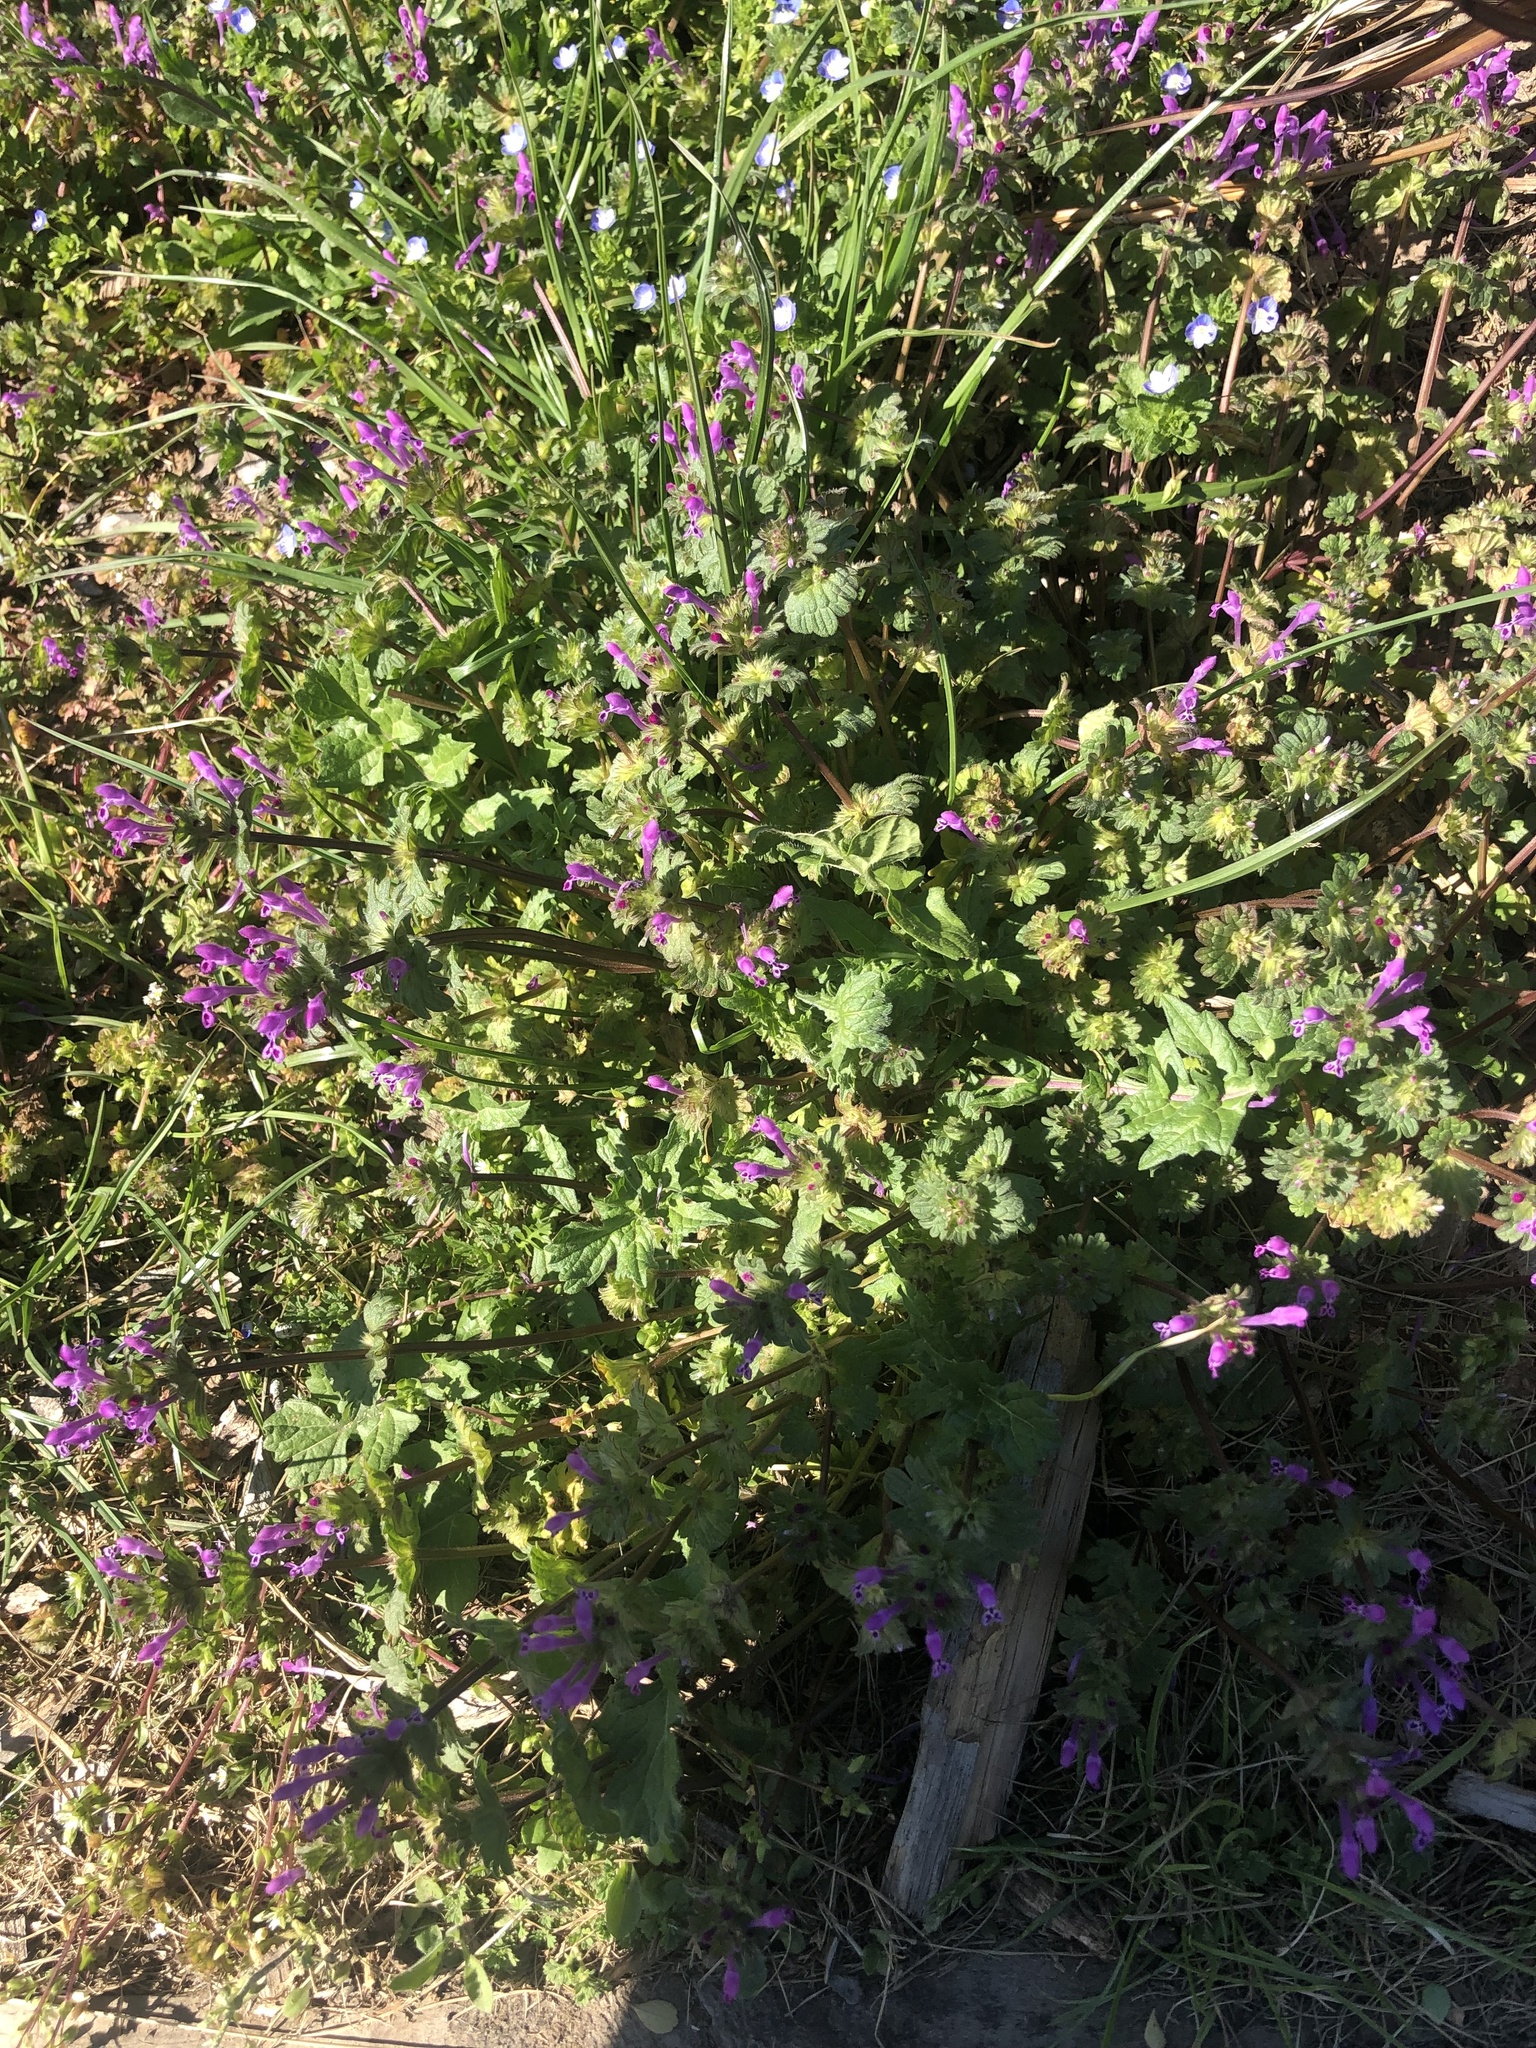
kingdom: Plantae
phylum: Tracheophyta
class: Magnoliopsida
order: Lamiales
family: Lamiaceae
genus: Lamium
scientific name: Lamium amplexicaule
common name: Henbit dead-nettle
